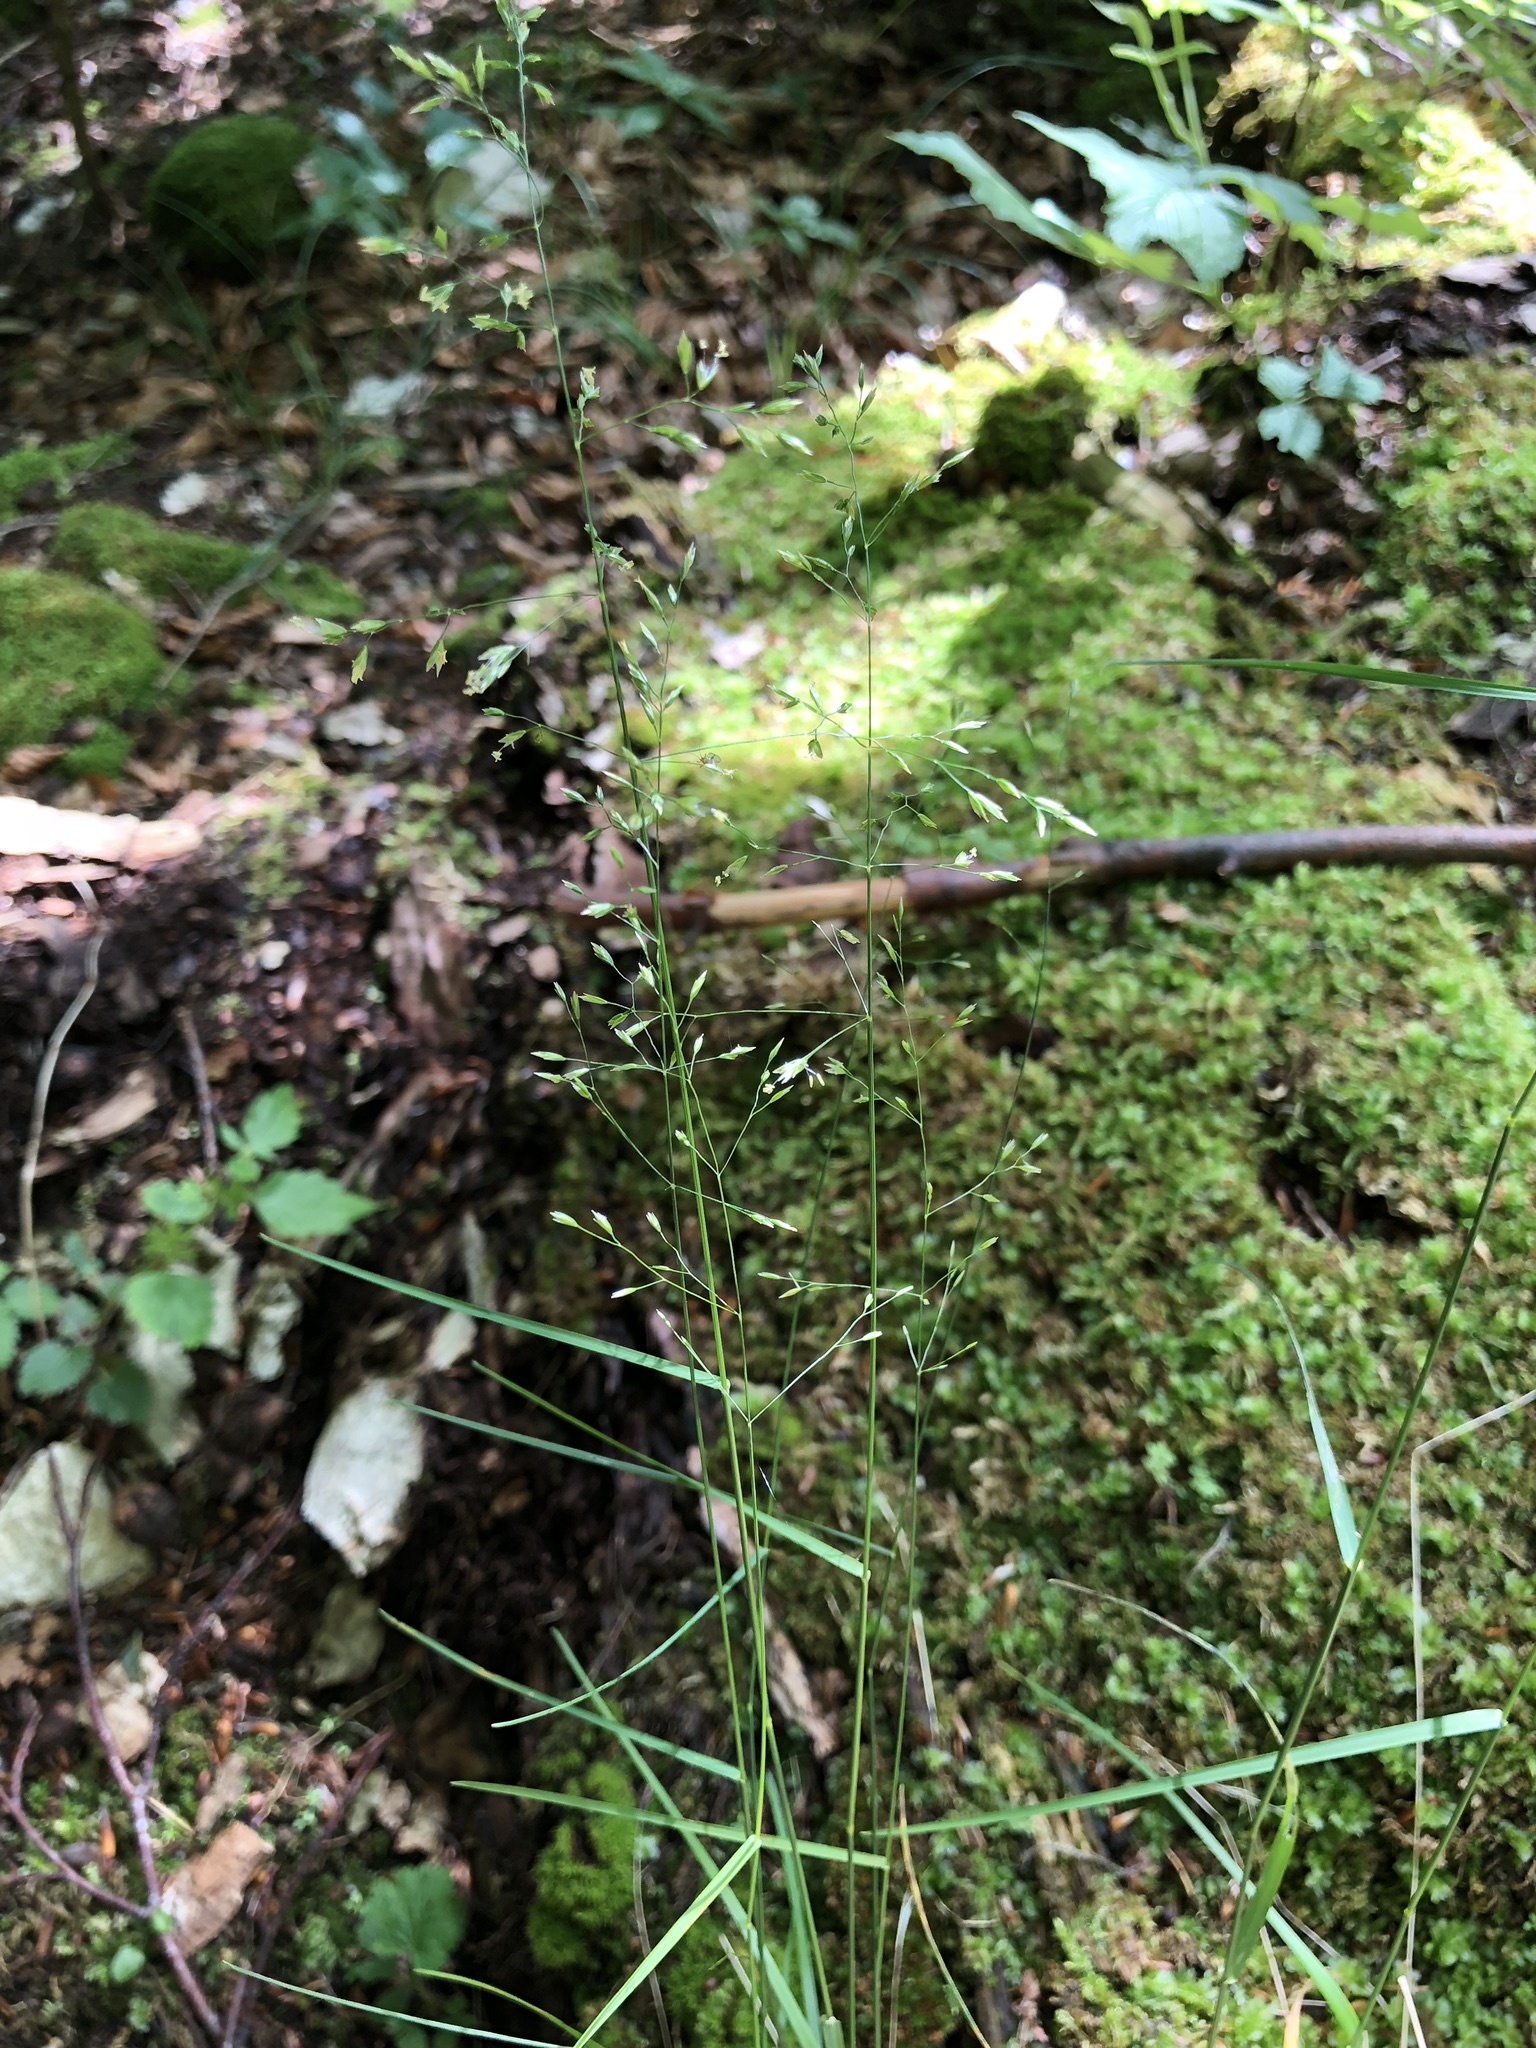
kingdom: Plantae
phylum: Tracheophyta
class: Liliopsida
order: Poales
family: Poaceae
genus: Poa
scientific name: Poa nemoralis
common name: Wood bluegrass
